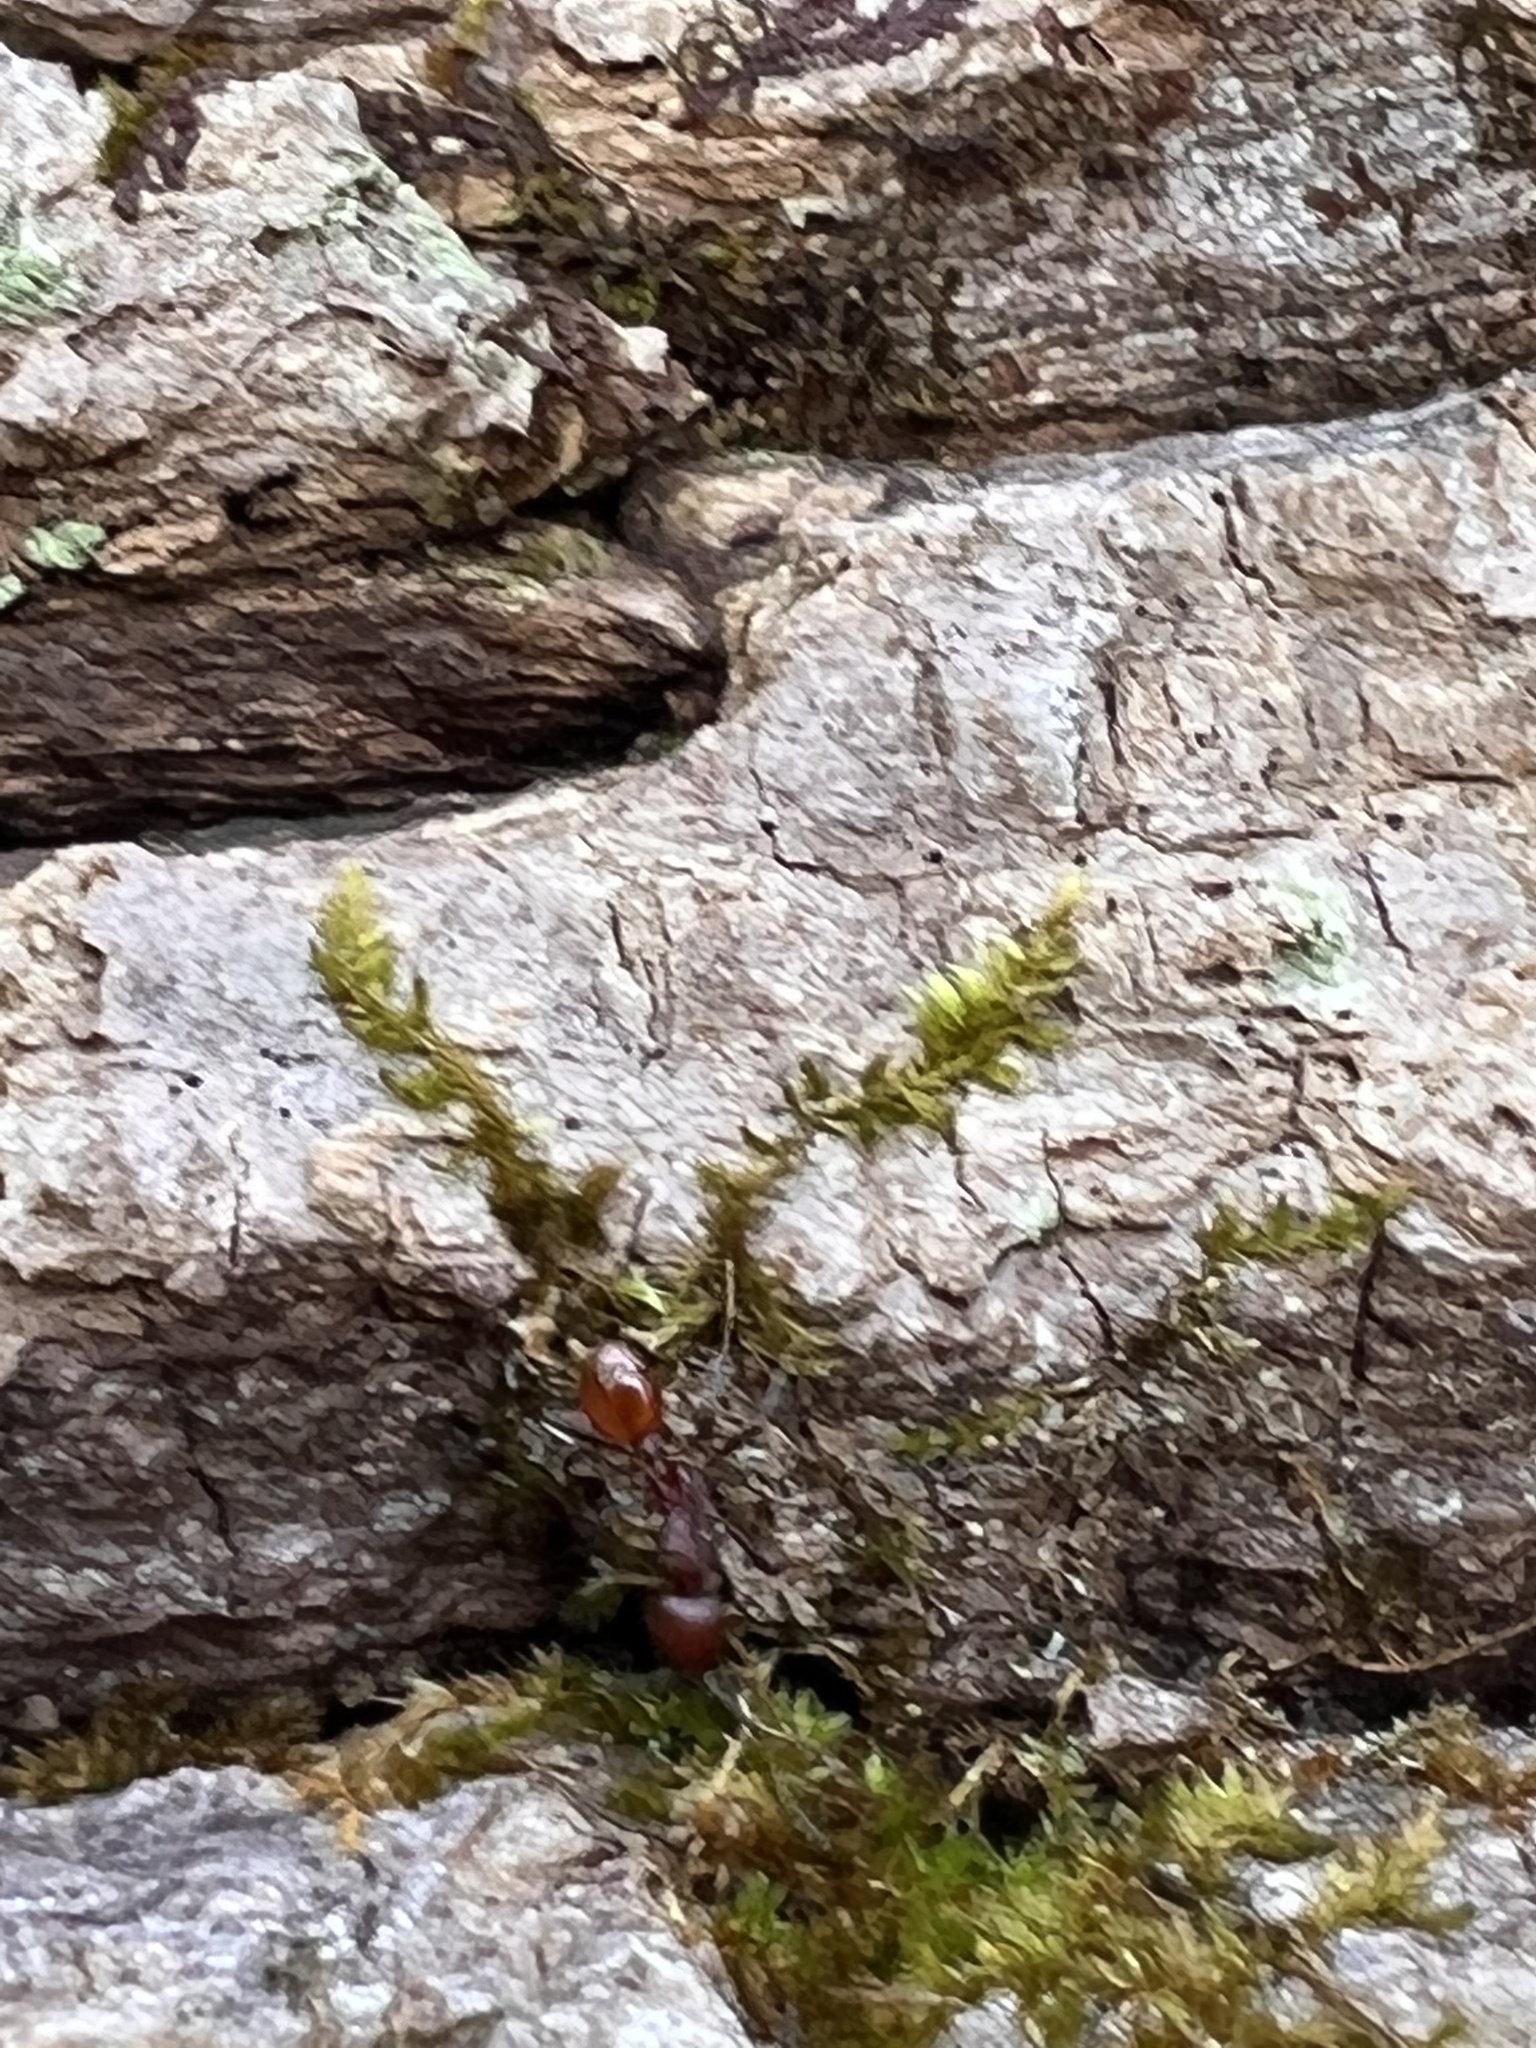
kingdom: Animalia
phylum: Arthropoda
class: Insecta
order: Hymenoptera
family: Formicidae
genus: Aphaenogaster
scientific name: Aphaenogaster tennesseensis
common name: Tennessee thread-waisted ant
